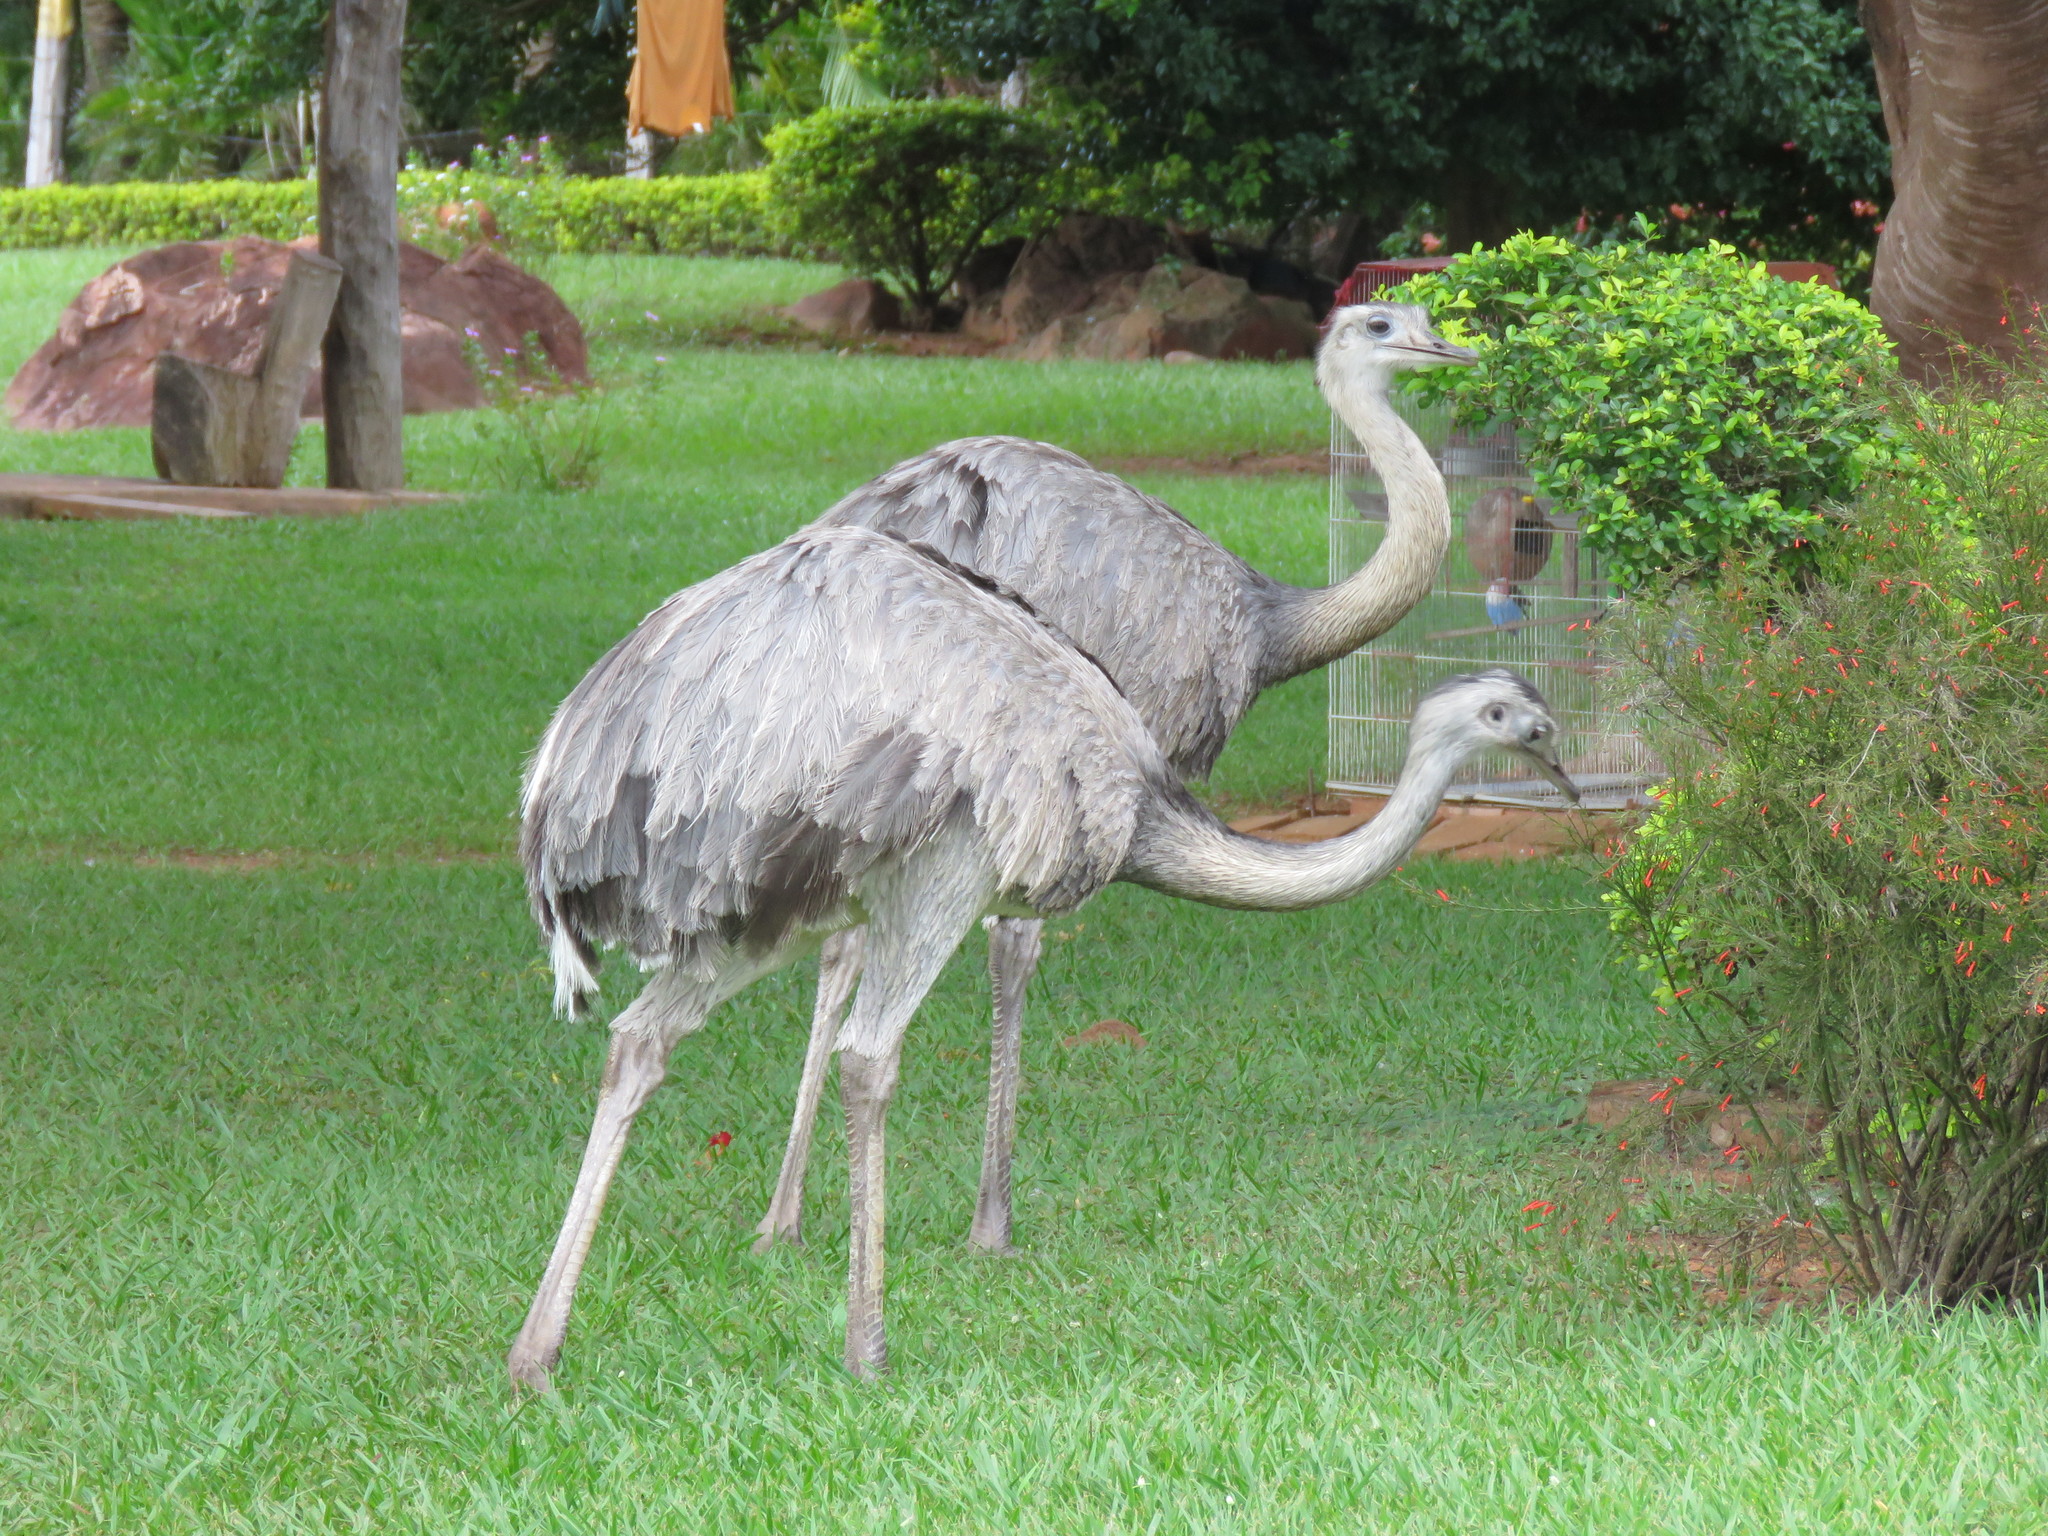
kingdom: Animalia
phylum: Chordata
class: Aves
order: Rheiformes
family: Rheidae
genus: Rhea
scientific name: Rhea americana
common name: Greater rhea
